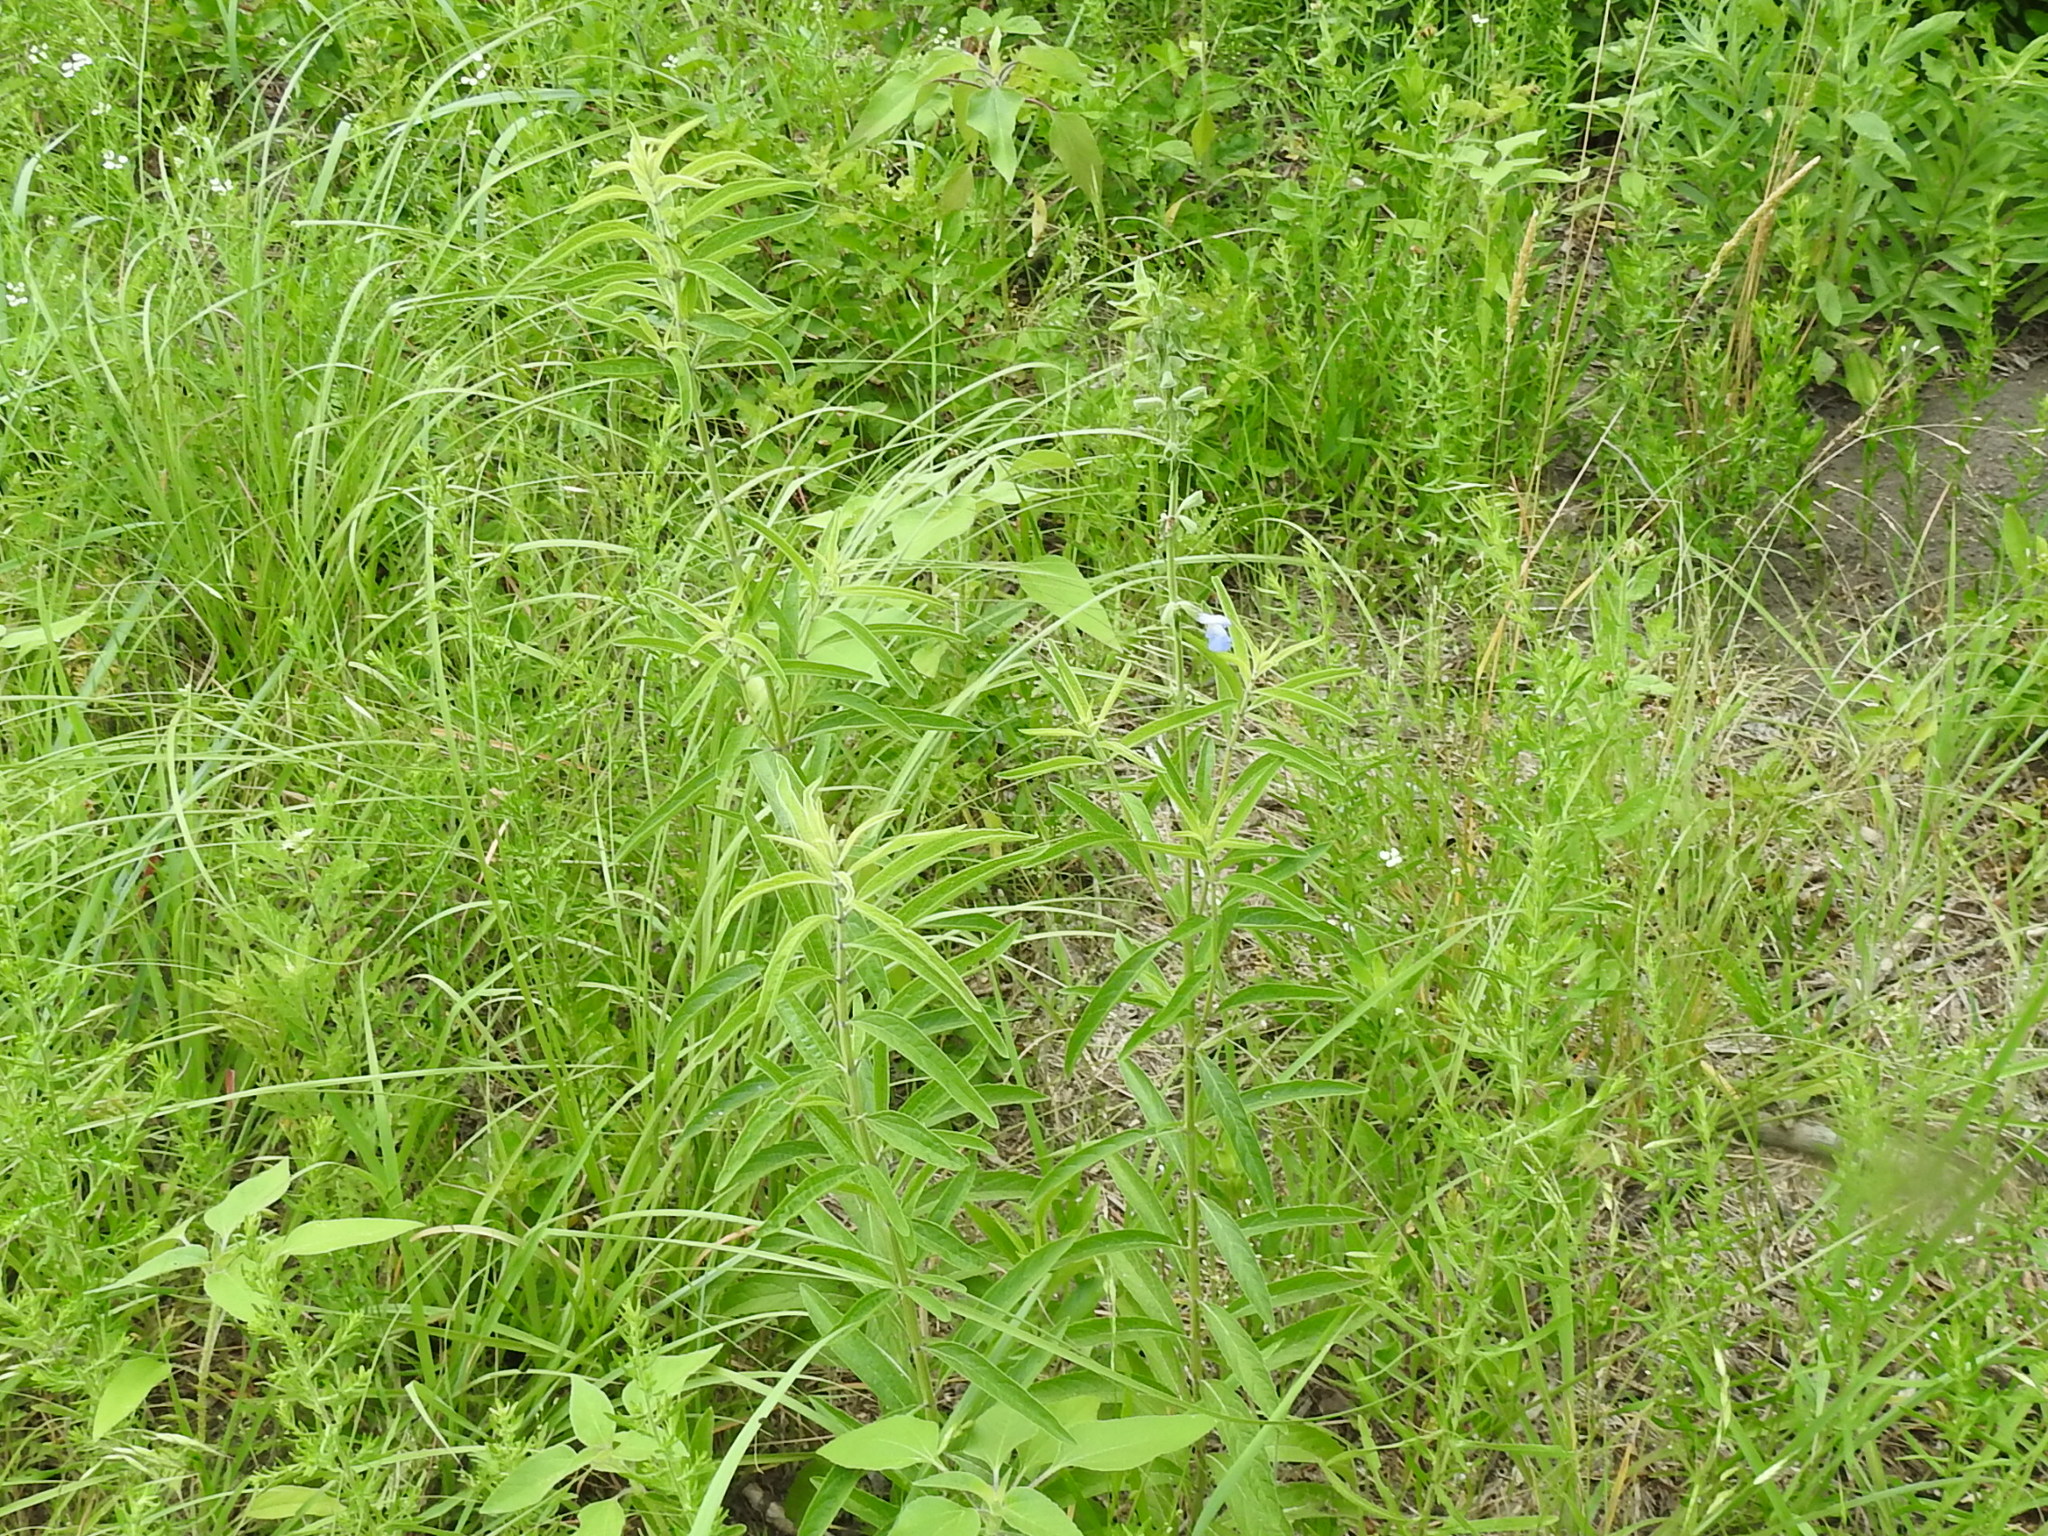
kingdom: Plantae
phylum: Tracheophyta
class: Magnoliopsida
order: Lamiales
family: Lamiaceae
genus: Salvia
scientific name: Salvia azurea
